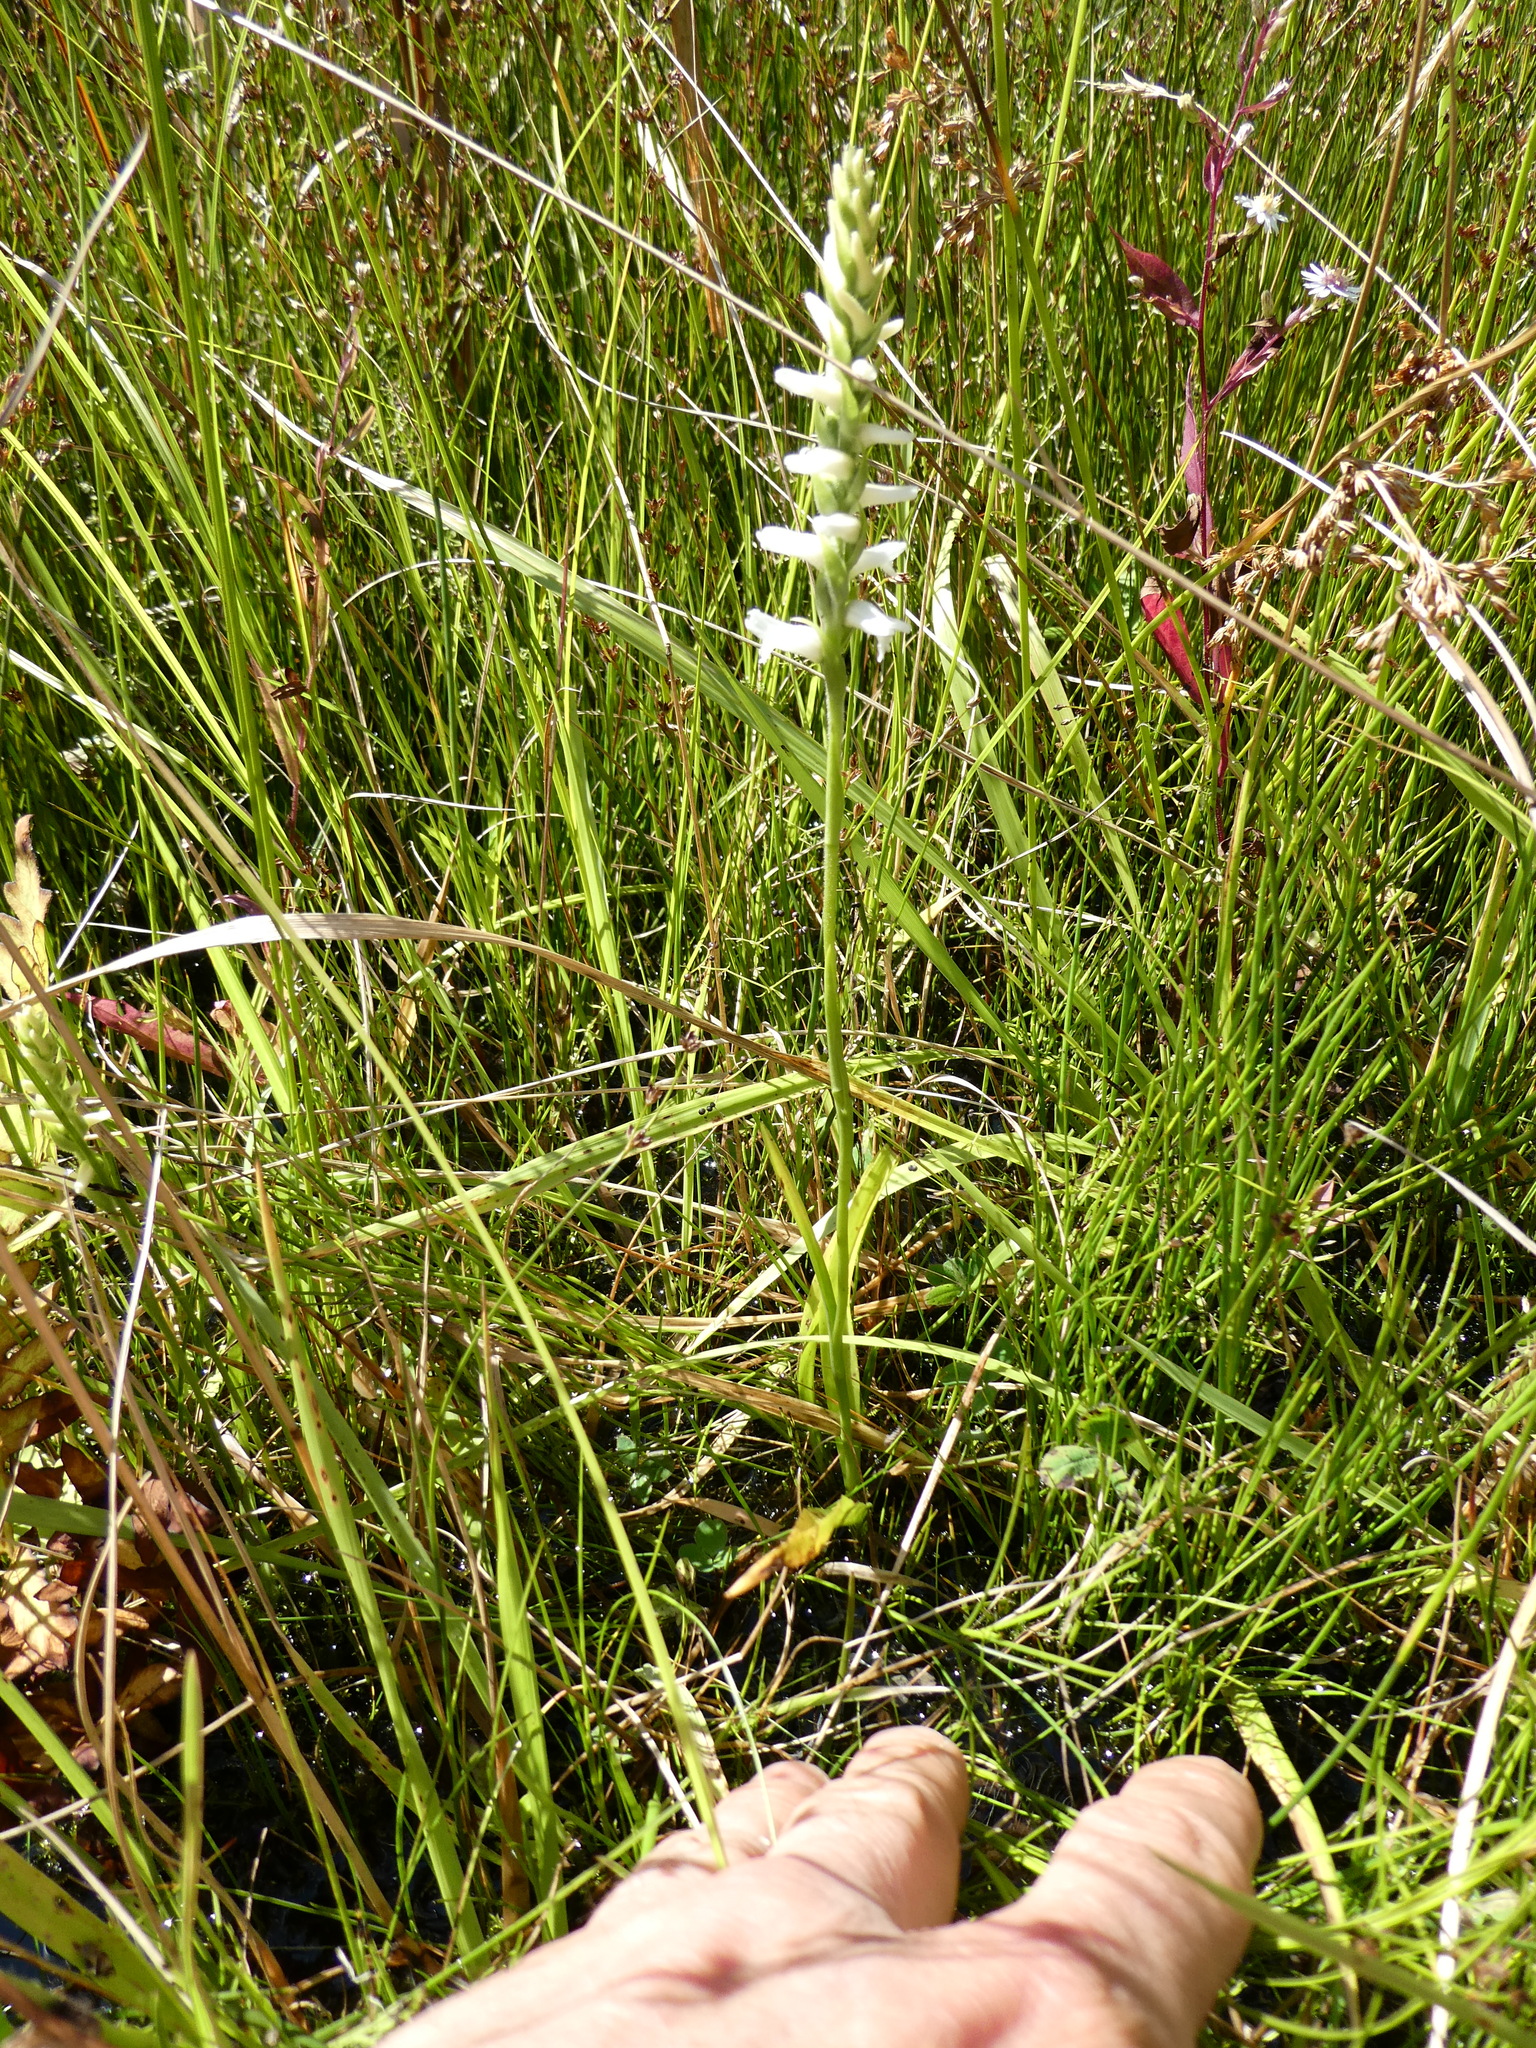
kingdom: Plantae
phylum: Tracheophyta
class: Liliopsida
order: Asparagales
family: Orchidaceae
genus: Spiranthes
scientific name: Spiranthes incurva
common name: Sphinx ladies'-tresses
